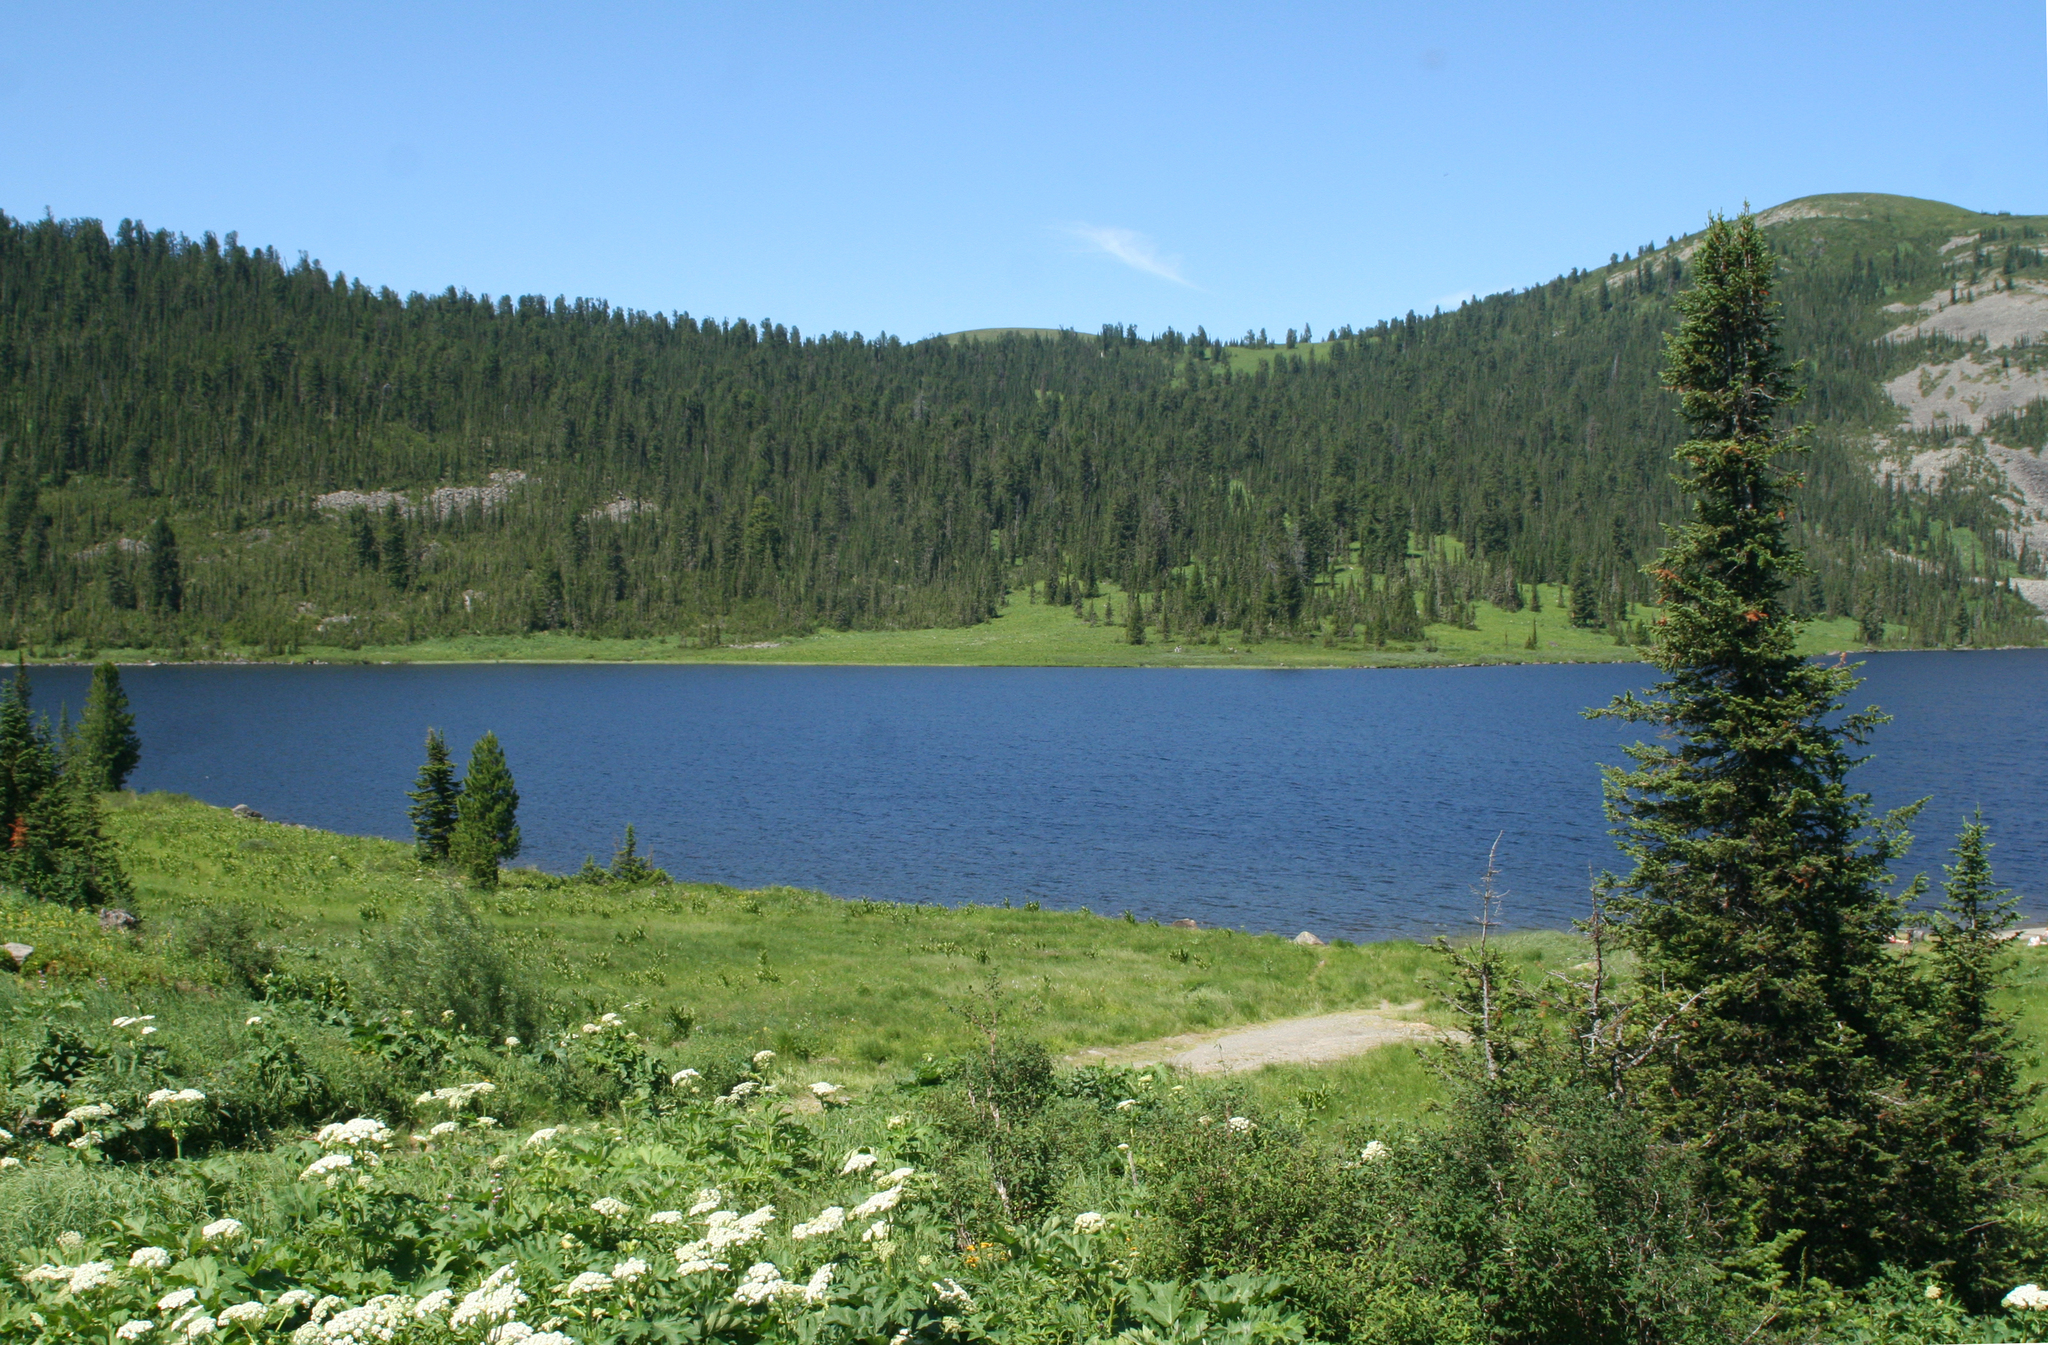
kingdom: Plantae
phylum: Tracheophyta
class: Pinopsida
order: Pinales
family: Pinaceae
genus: Abies
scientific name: Abies sibirica
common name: Siberian fir
